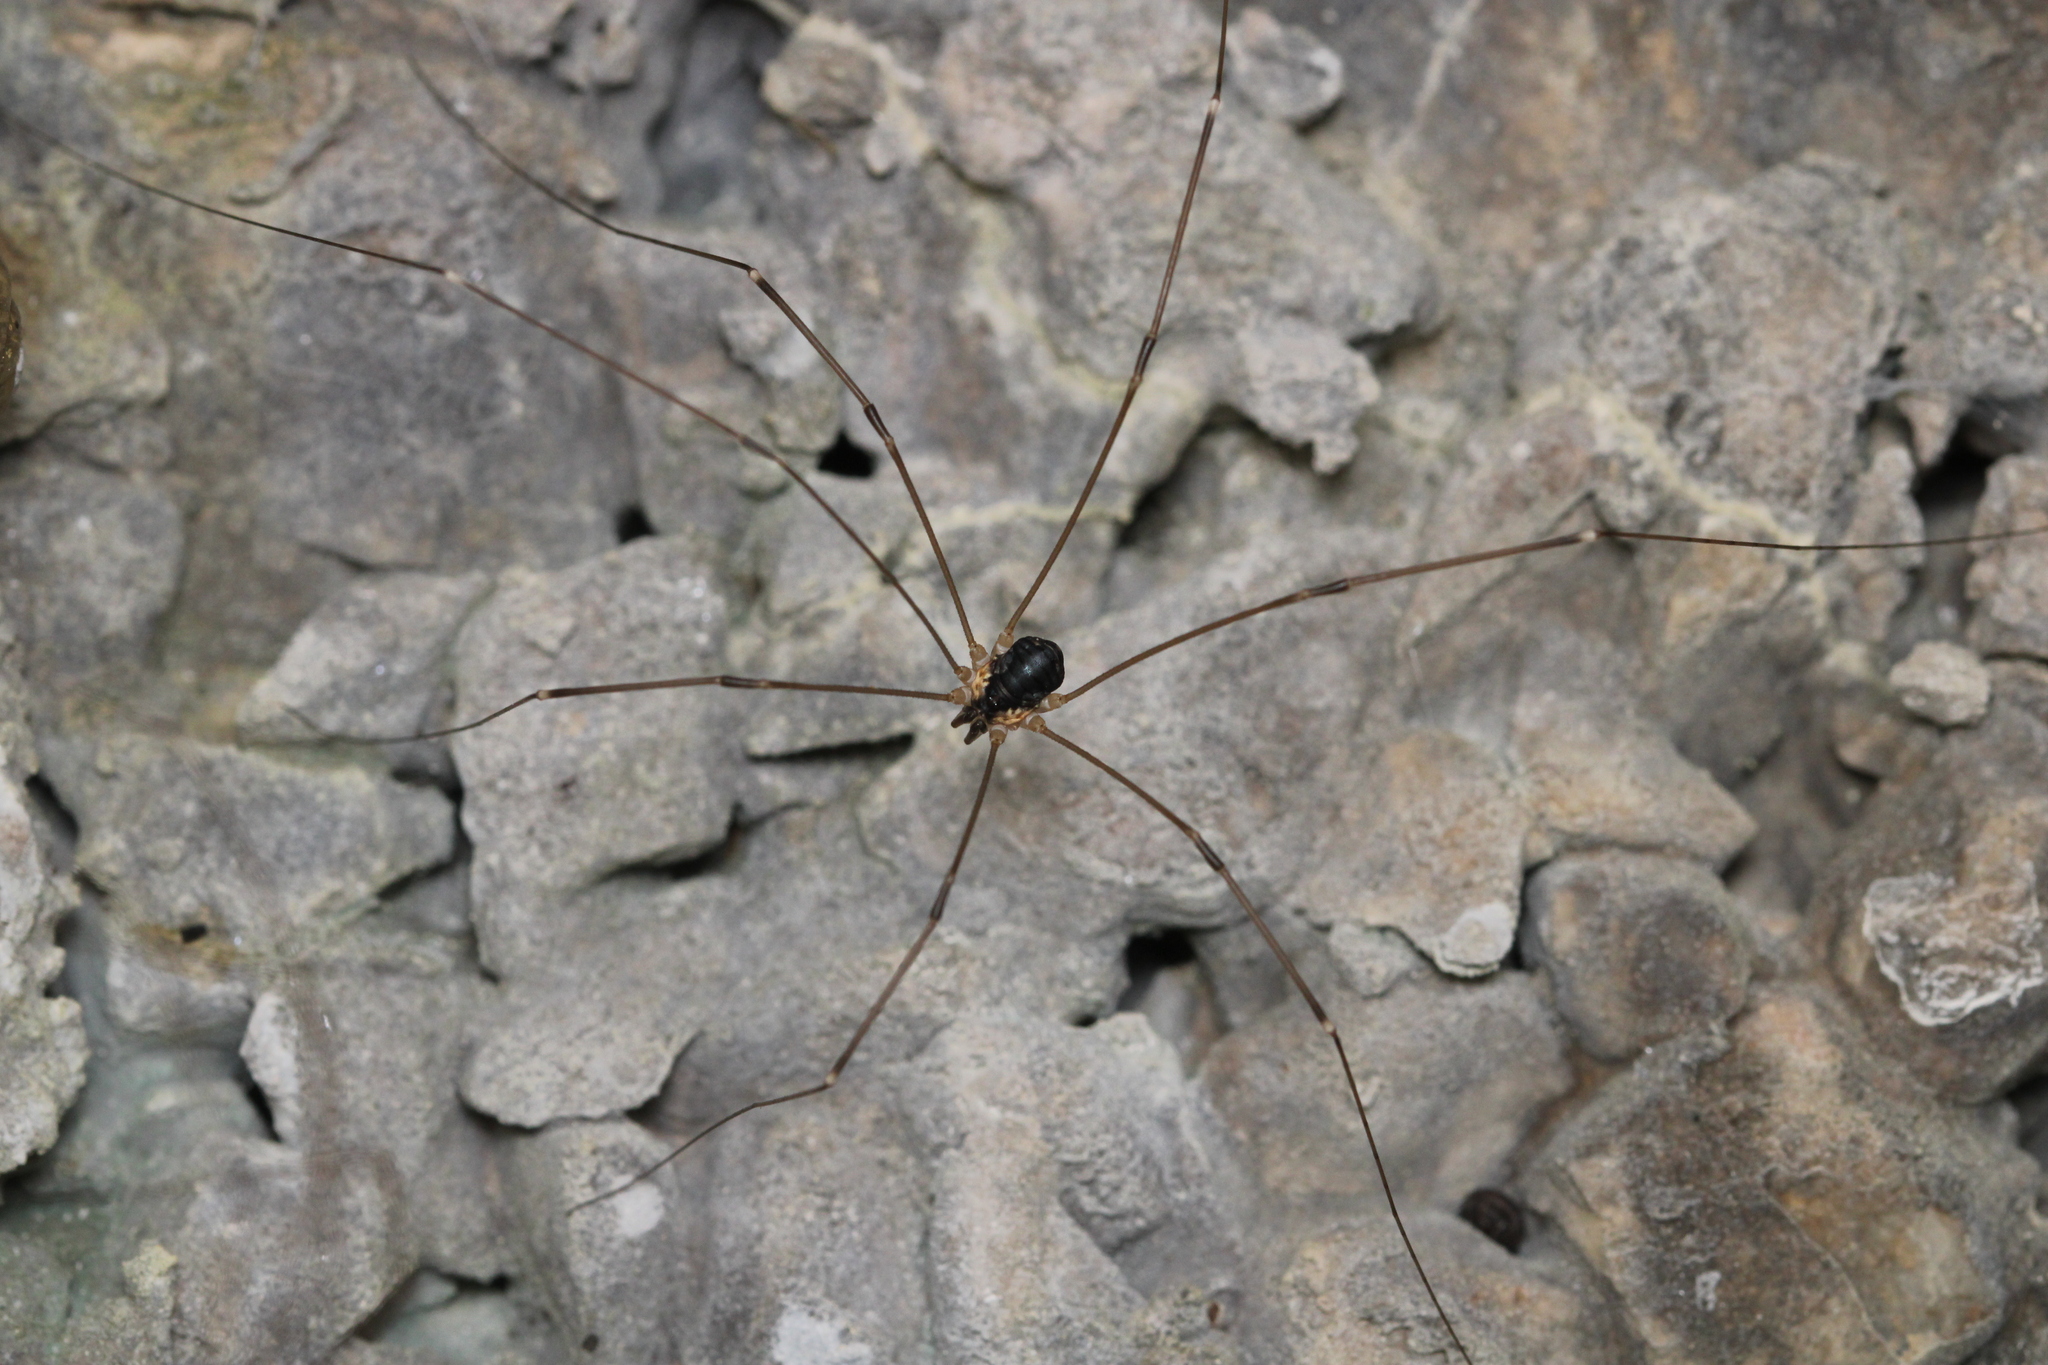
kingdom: Animalia
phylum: Arthropoda
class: Arachnida
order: Opiliones
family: Sclerosomatidae
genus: Leiobunum
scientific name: Leiobunum rupestre
